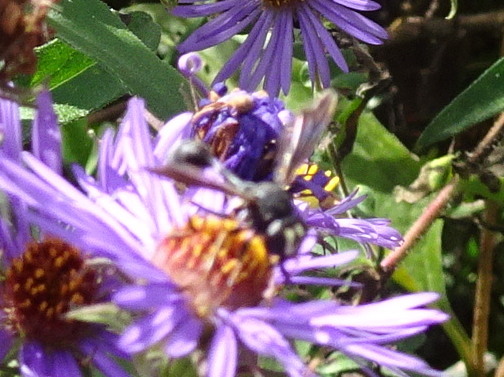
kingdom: Animalia
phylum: Arthropoda
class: Insecta
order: Diptera
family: Conopidae
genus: Physocephala
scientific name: Physocephala tibialis
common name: Common eastern physocephala
